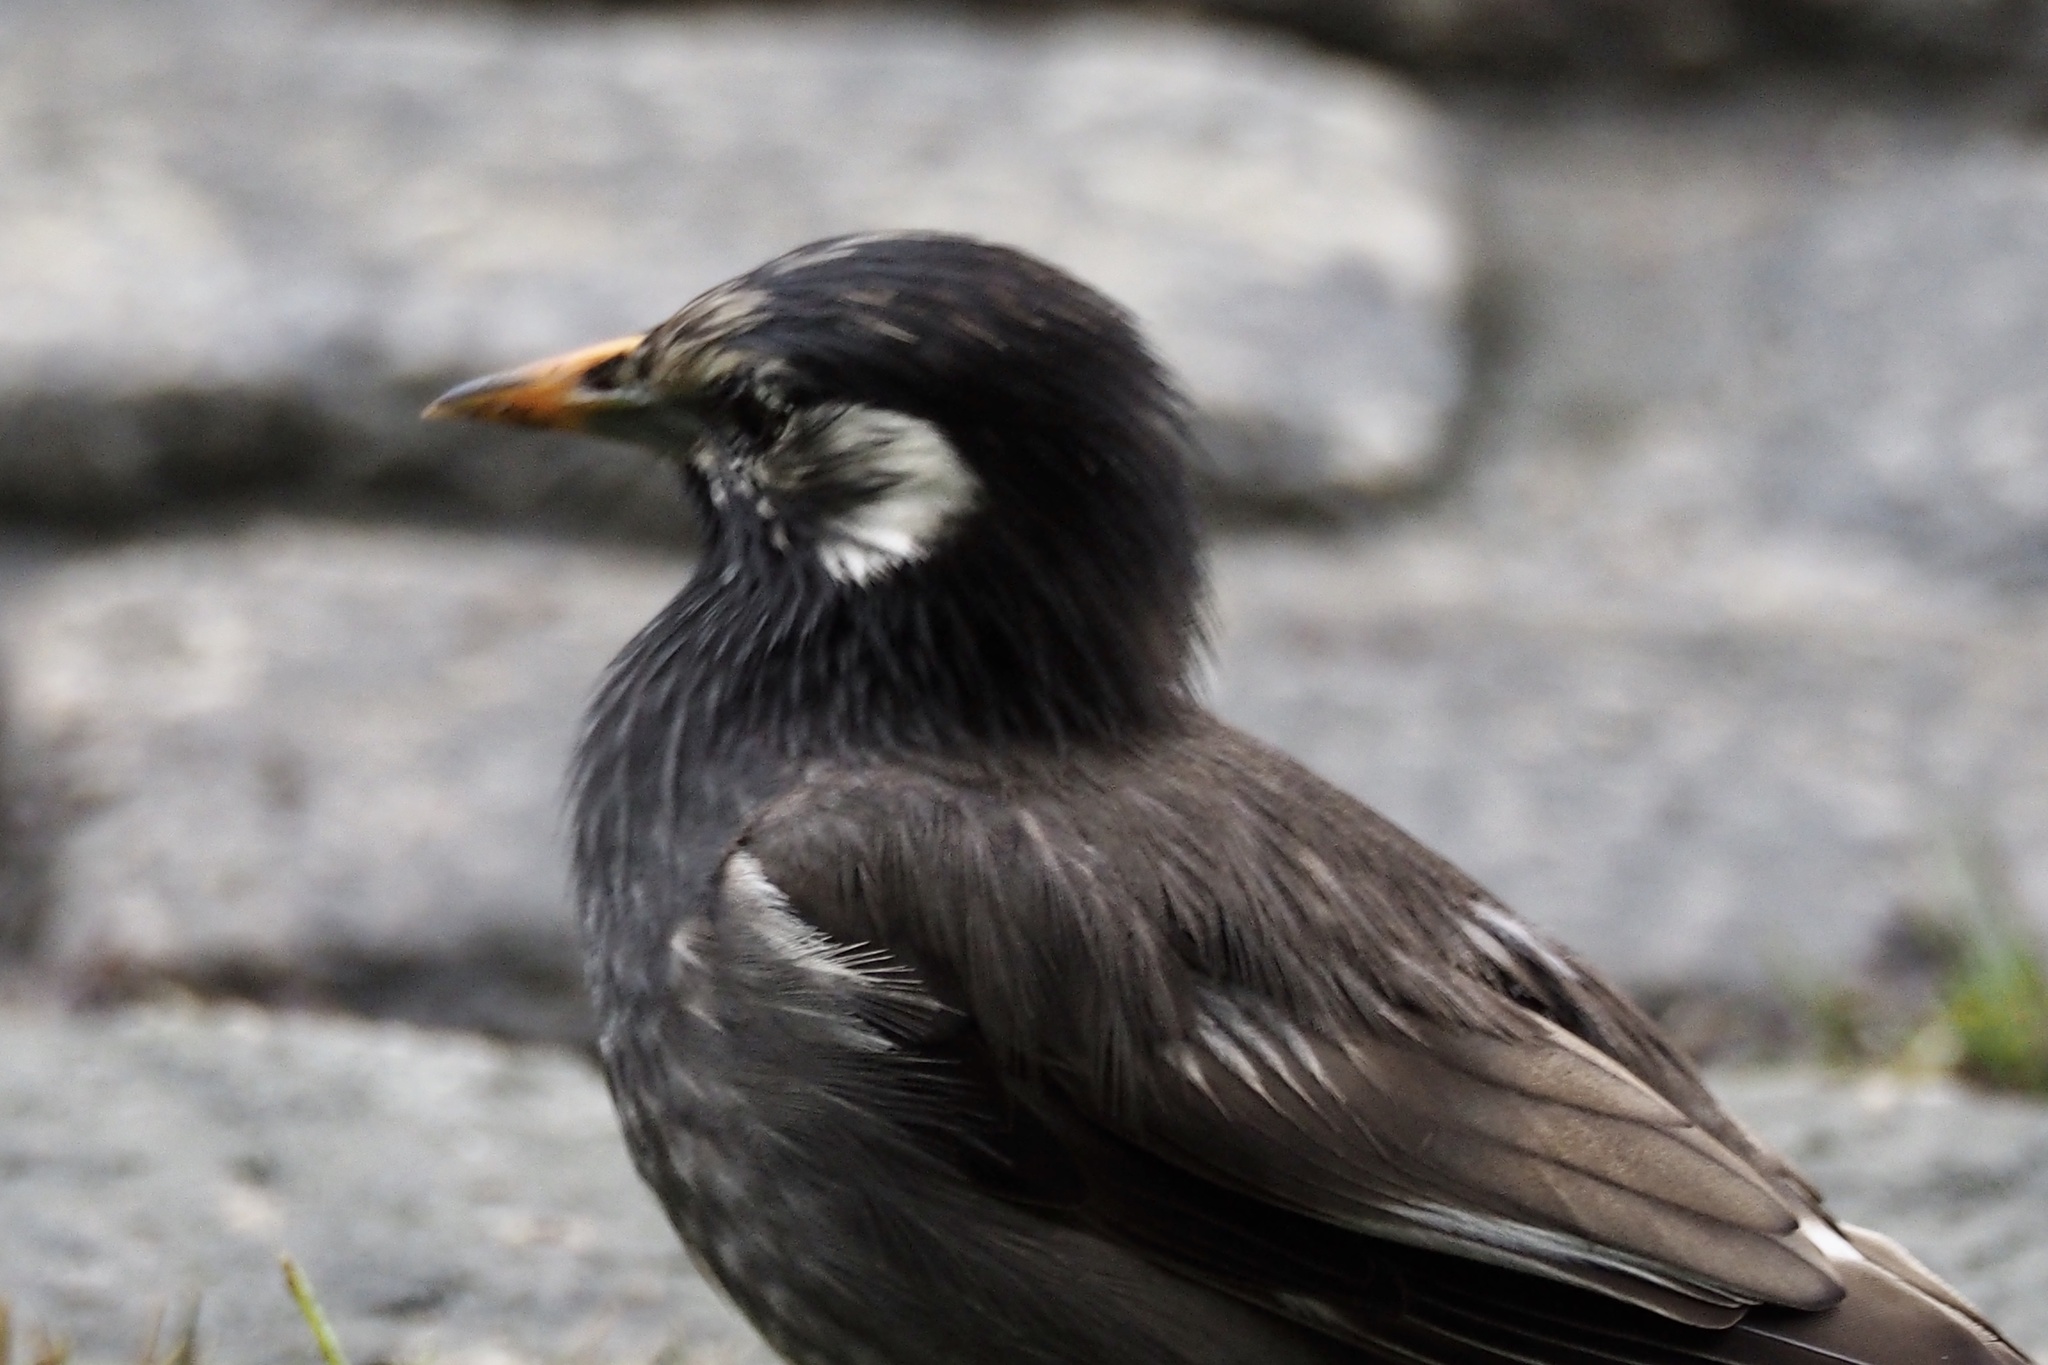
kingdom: Animalia
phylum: Chordata
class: Aves
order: Passeriformes
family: Sturnidae
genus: Spodiopsar
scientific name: Spodiopsar cineraceus
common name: White-cheeked starling
